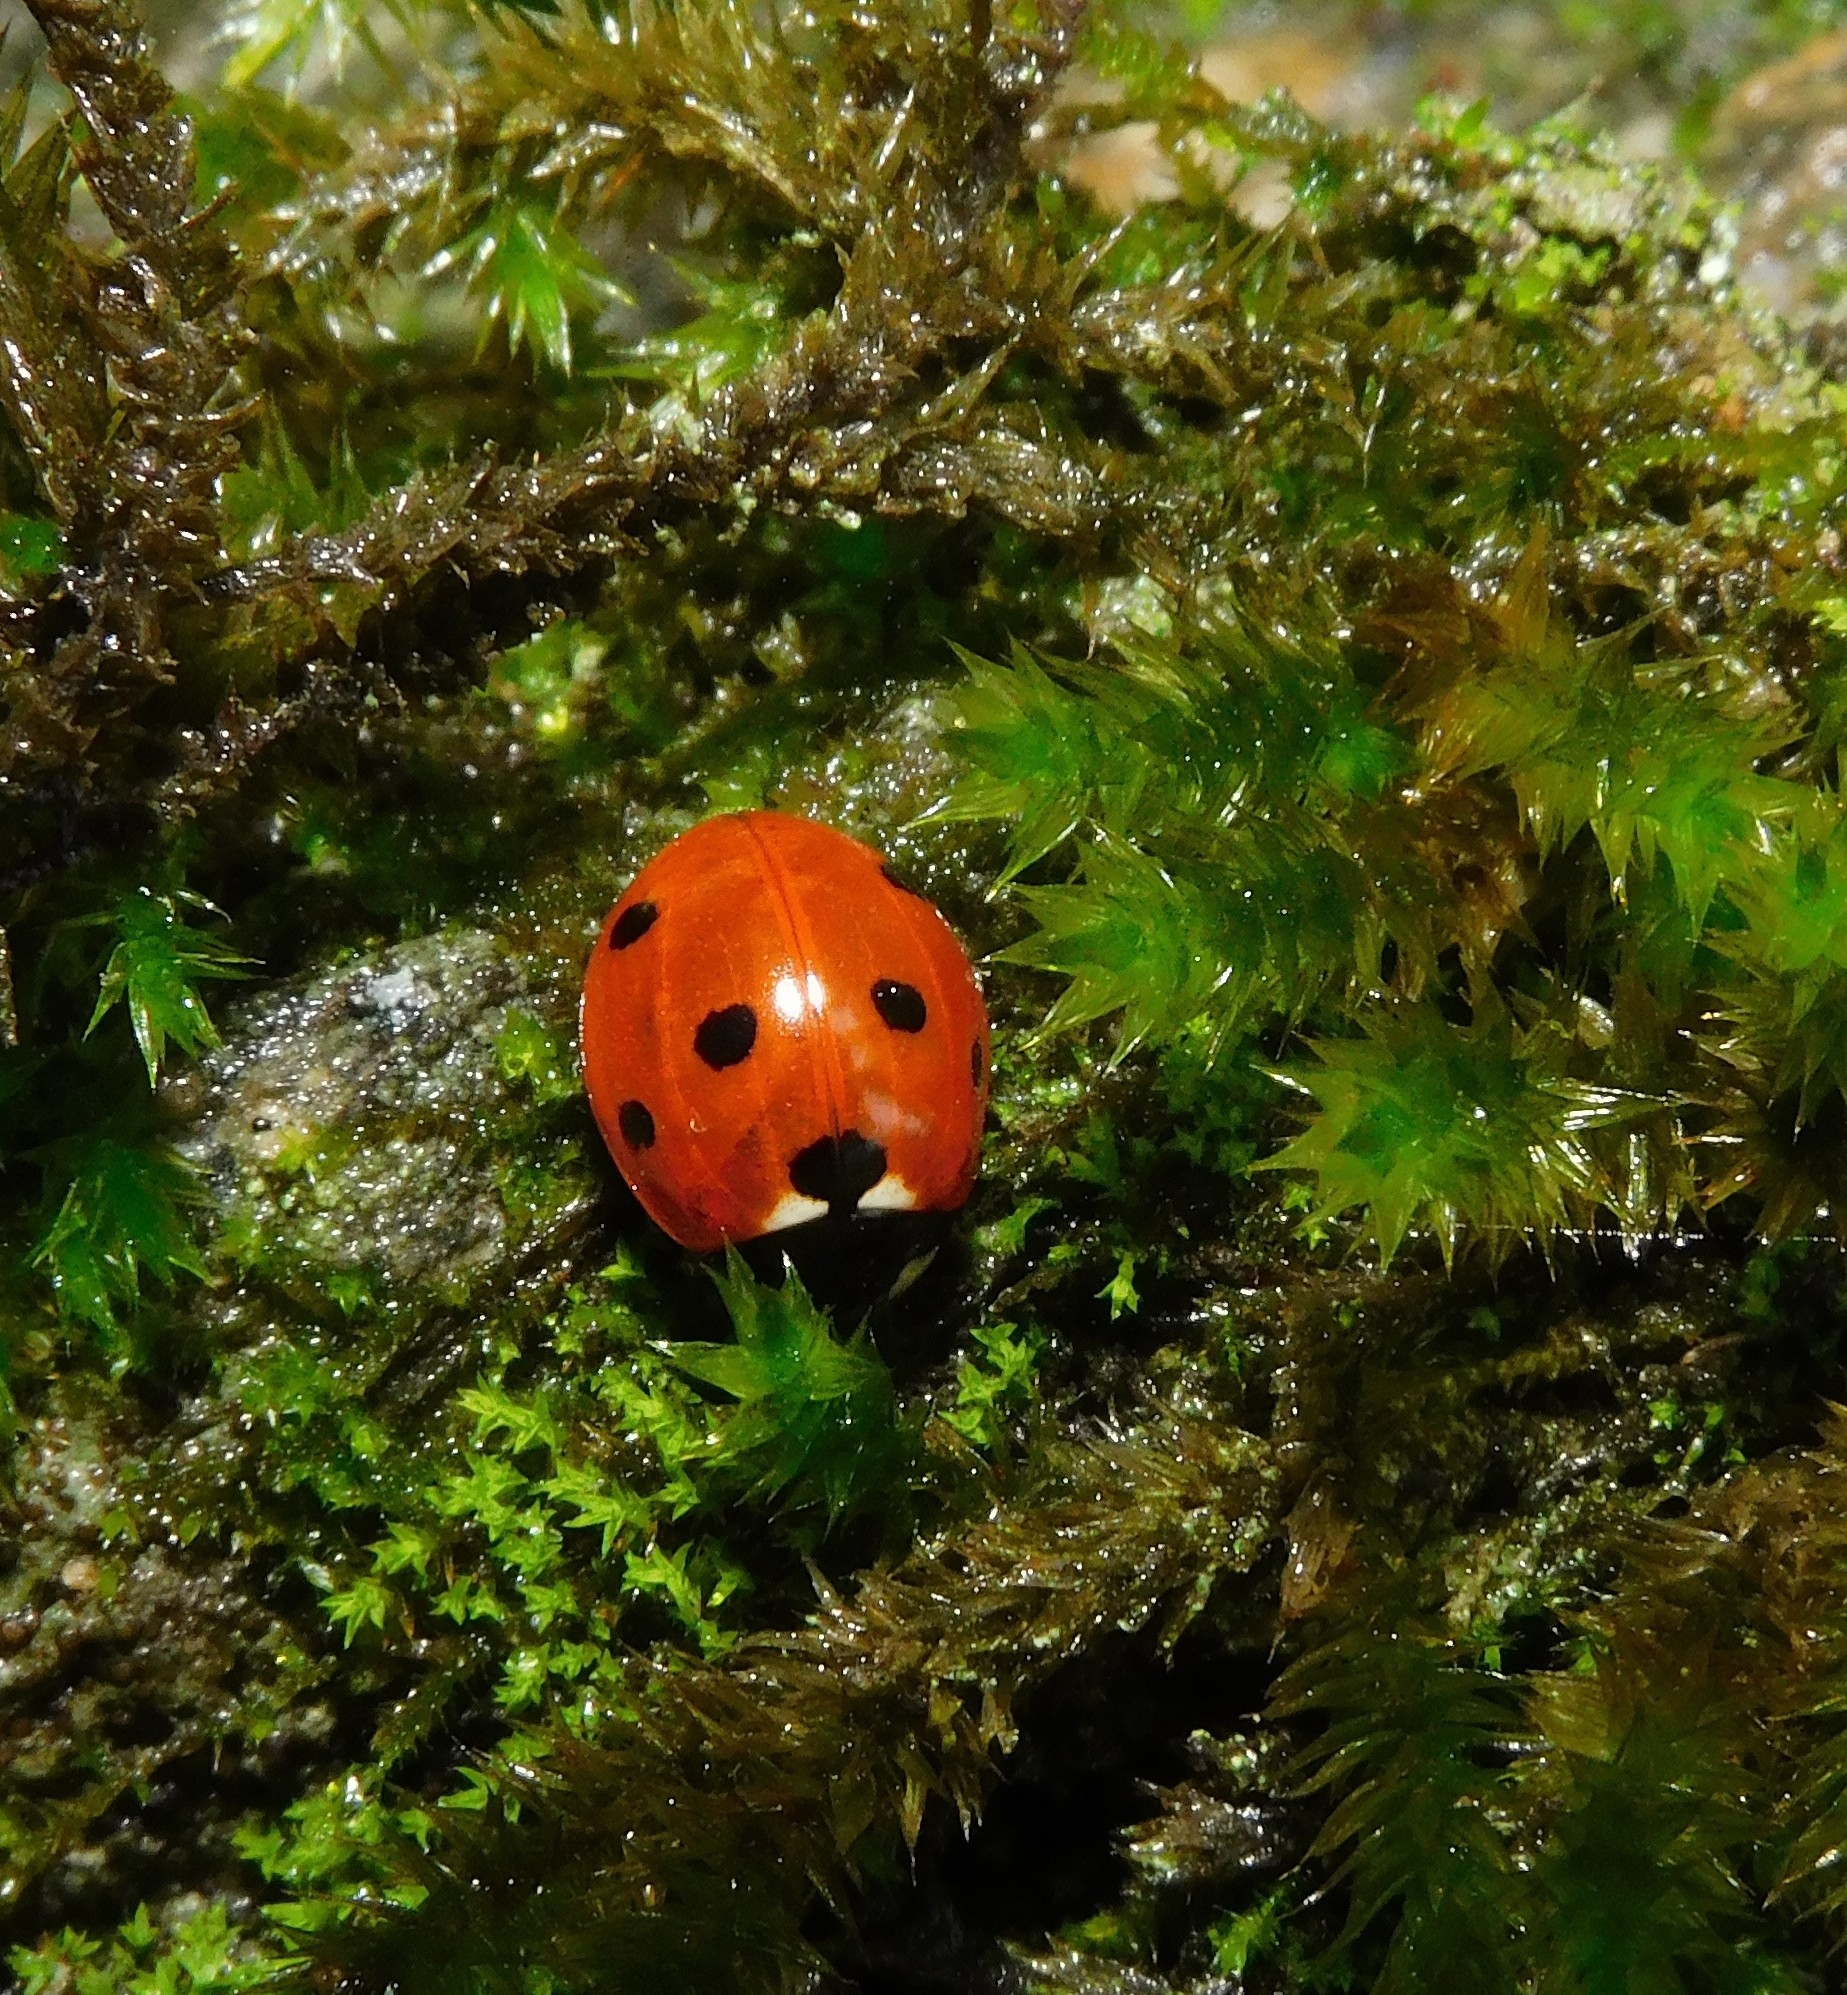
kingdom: Animalia
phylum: Arthropoda
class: Insecta
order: Coleoptera
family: Coccinellidae
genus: Coccinella
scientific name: Coccinella septempunctata
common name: Sevenspotted lady beetle
